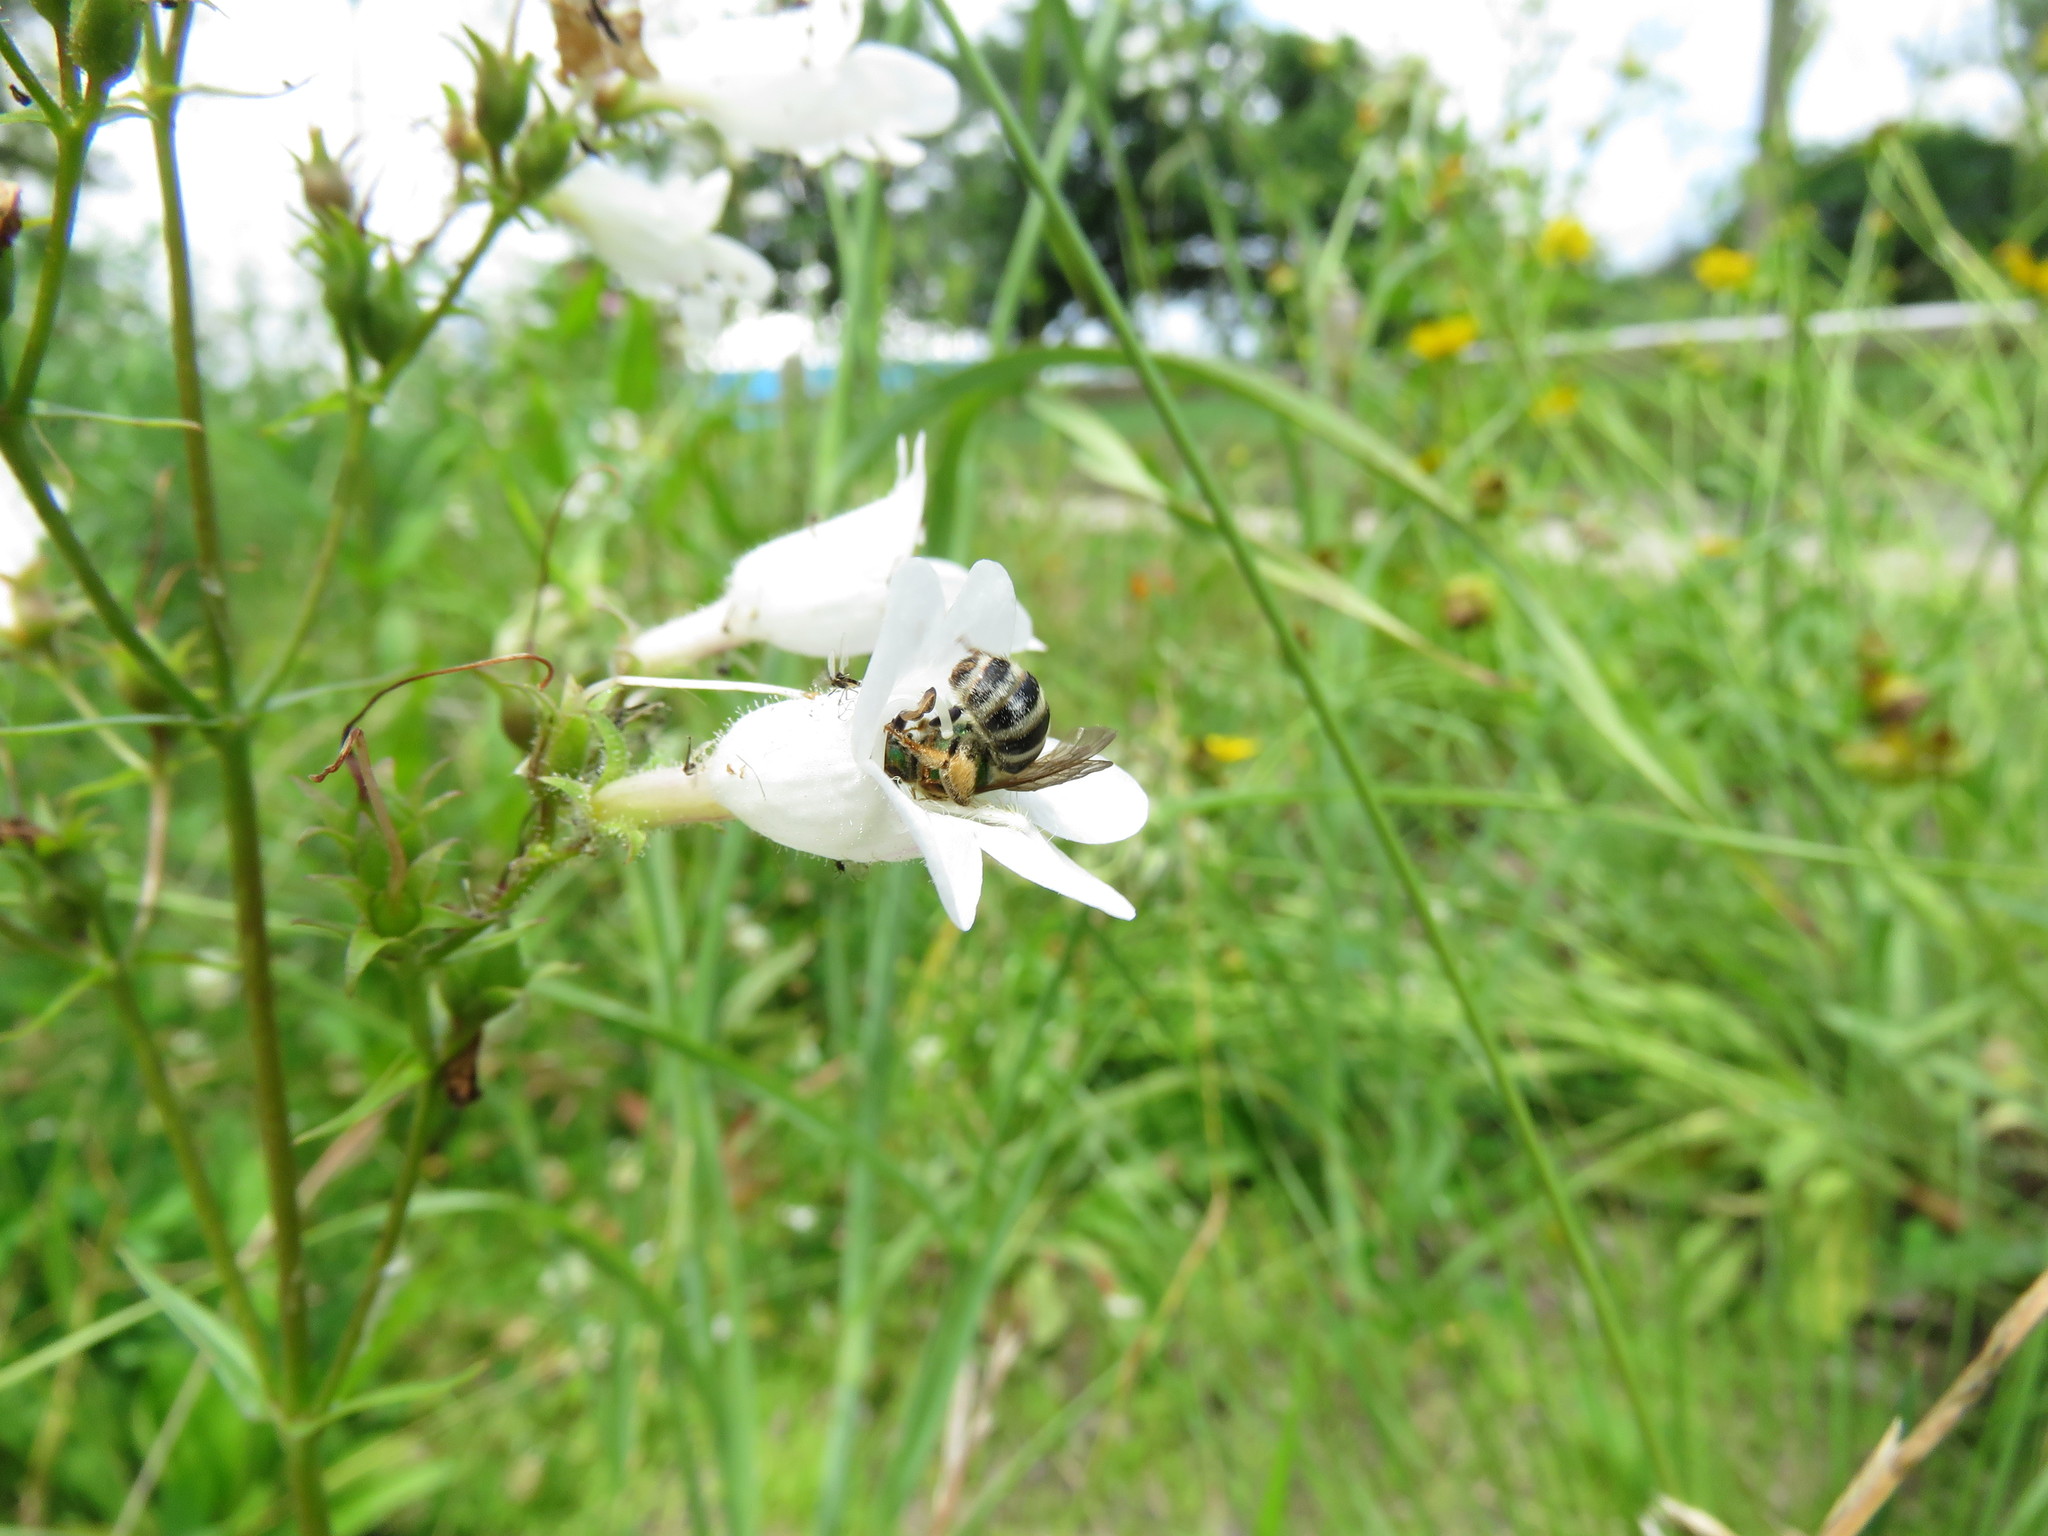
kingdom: Animalia
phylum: Arthropoda
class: Insecta
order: Hymenoptera
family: Halictidae
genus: Agapostemon
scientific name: Agapostemon virescens
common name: Bicolored striped sweat bee
